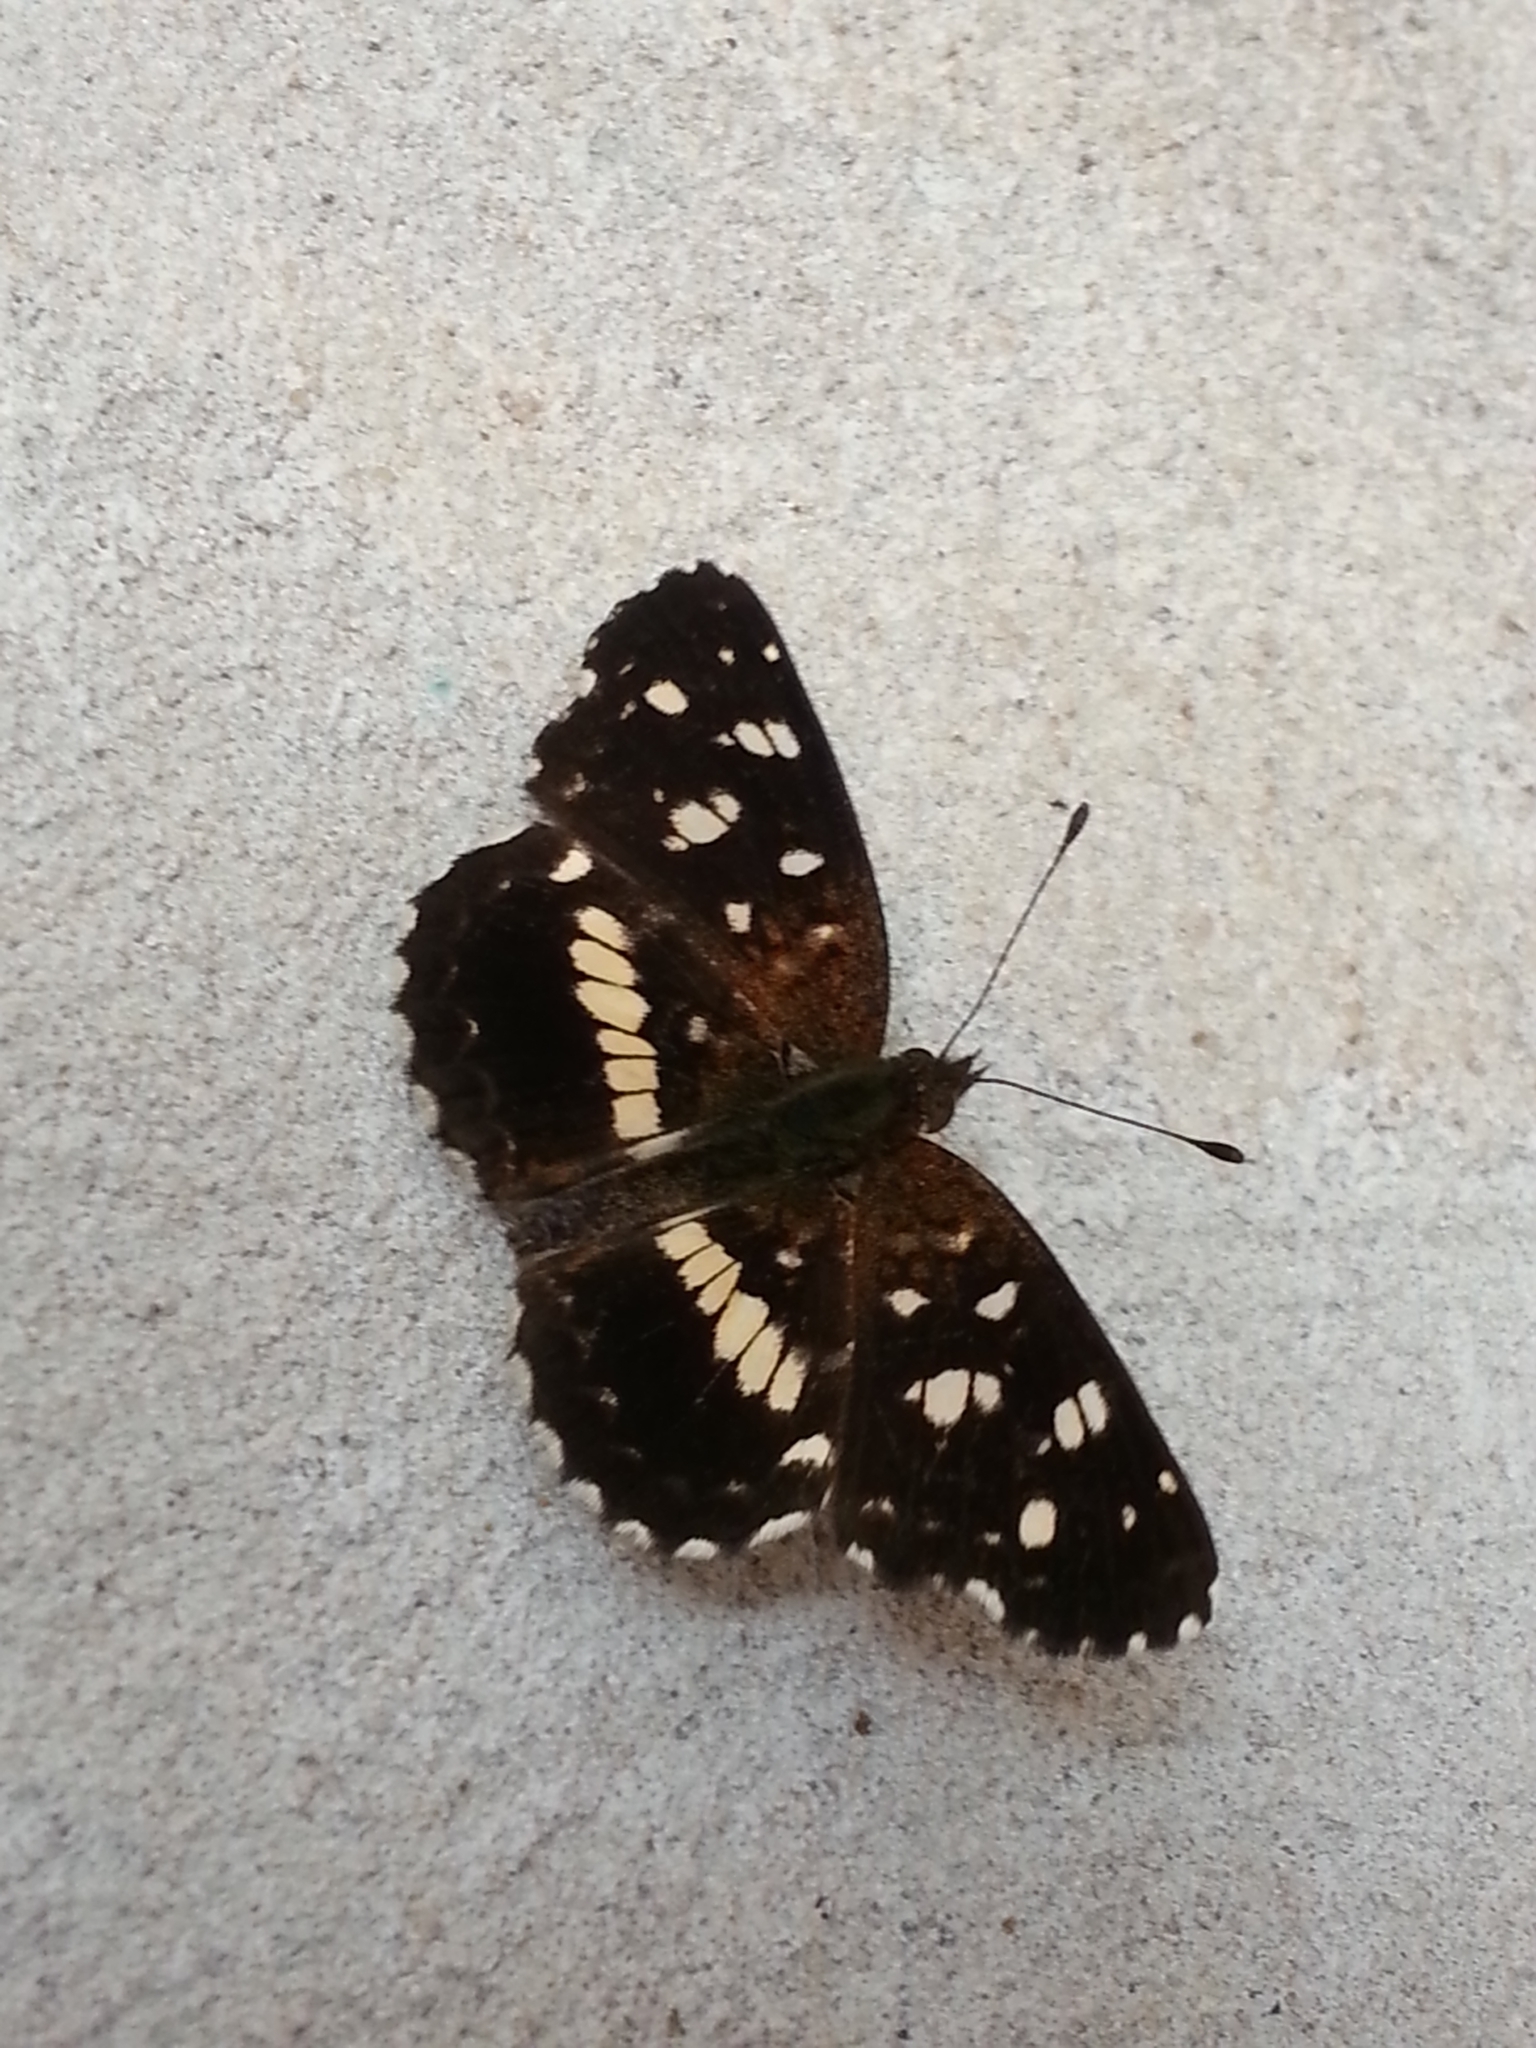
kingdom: Animalia
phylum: Arthropoda
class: Insecta
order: Lepidoptera
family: Nymphalidae
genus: Ortilia
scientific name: Ortilia ithra
